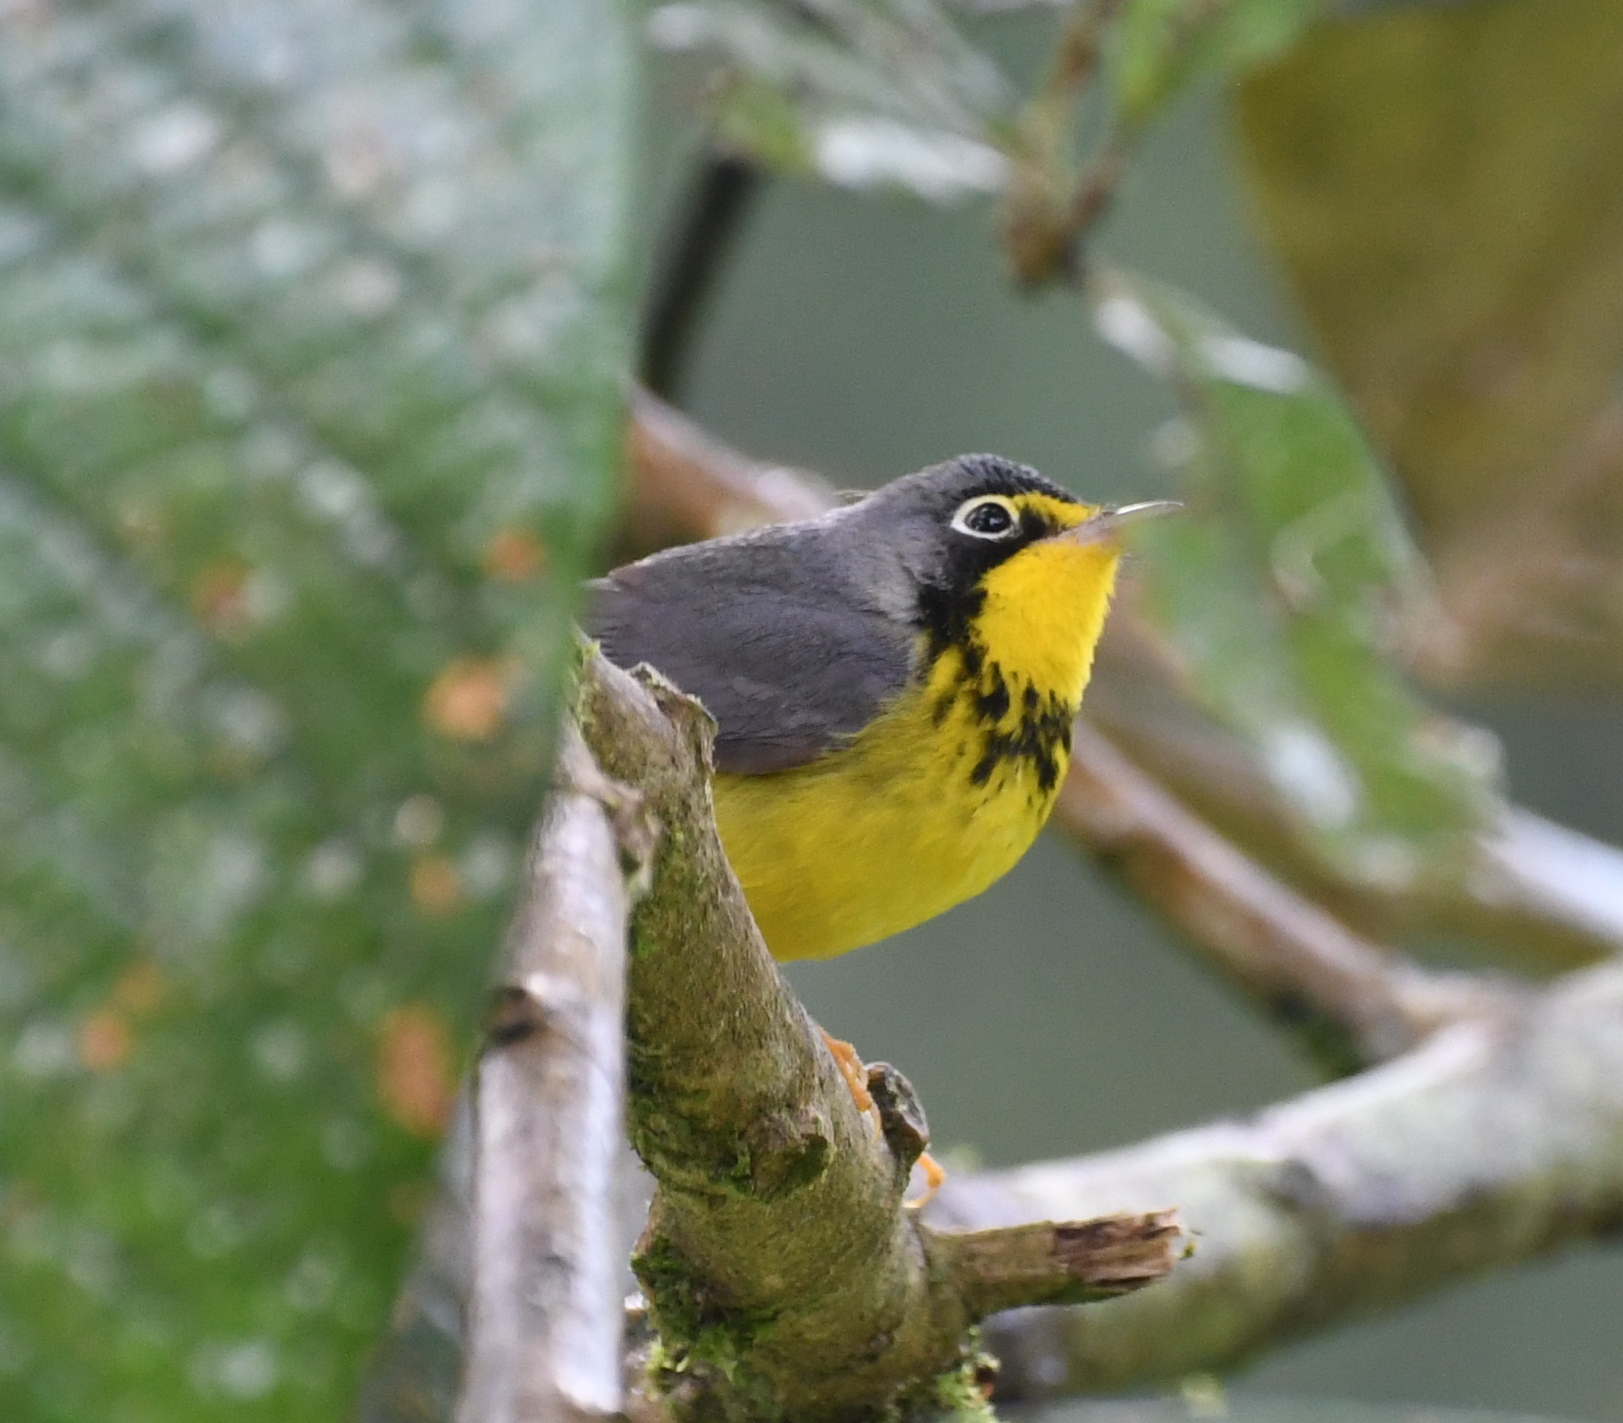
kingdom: Animalia
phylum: Chordata
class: Aves
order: Passeriformes
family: Parulidae
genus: Cardellina
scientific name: Cardellina canadensis
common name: Canada warbler
